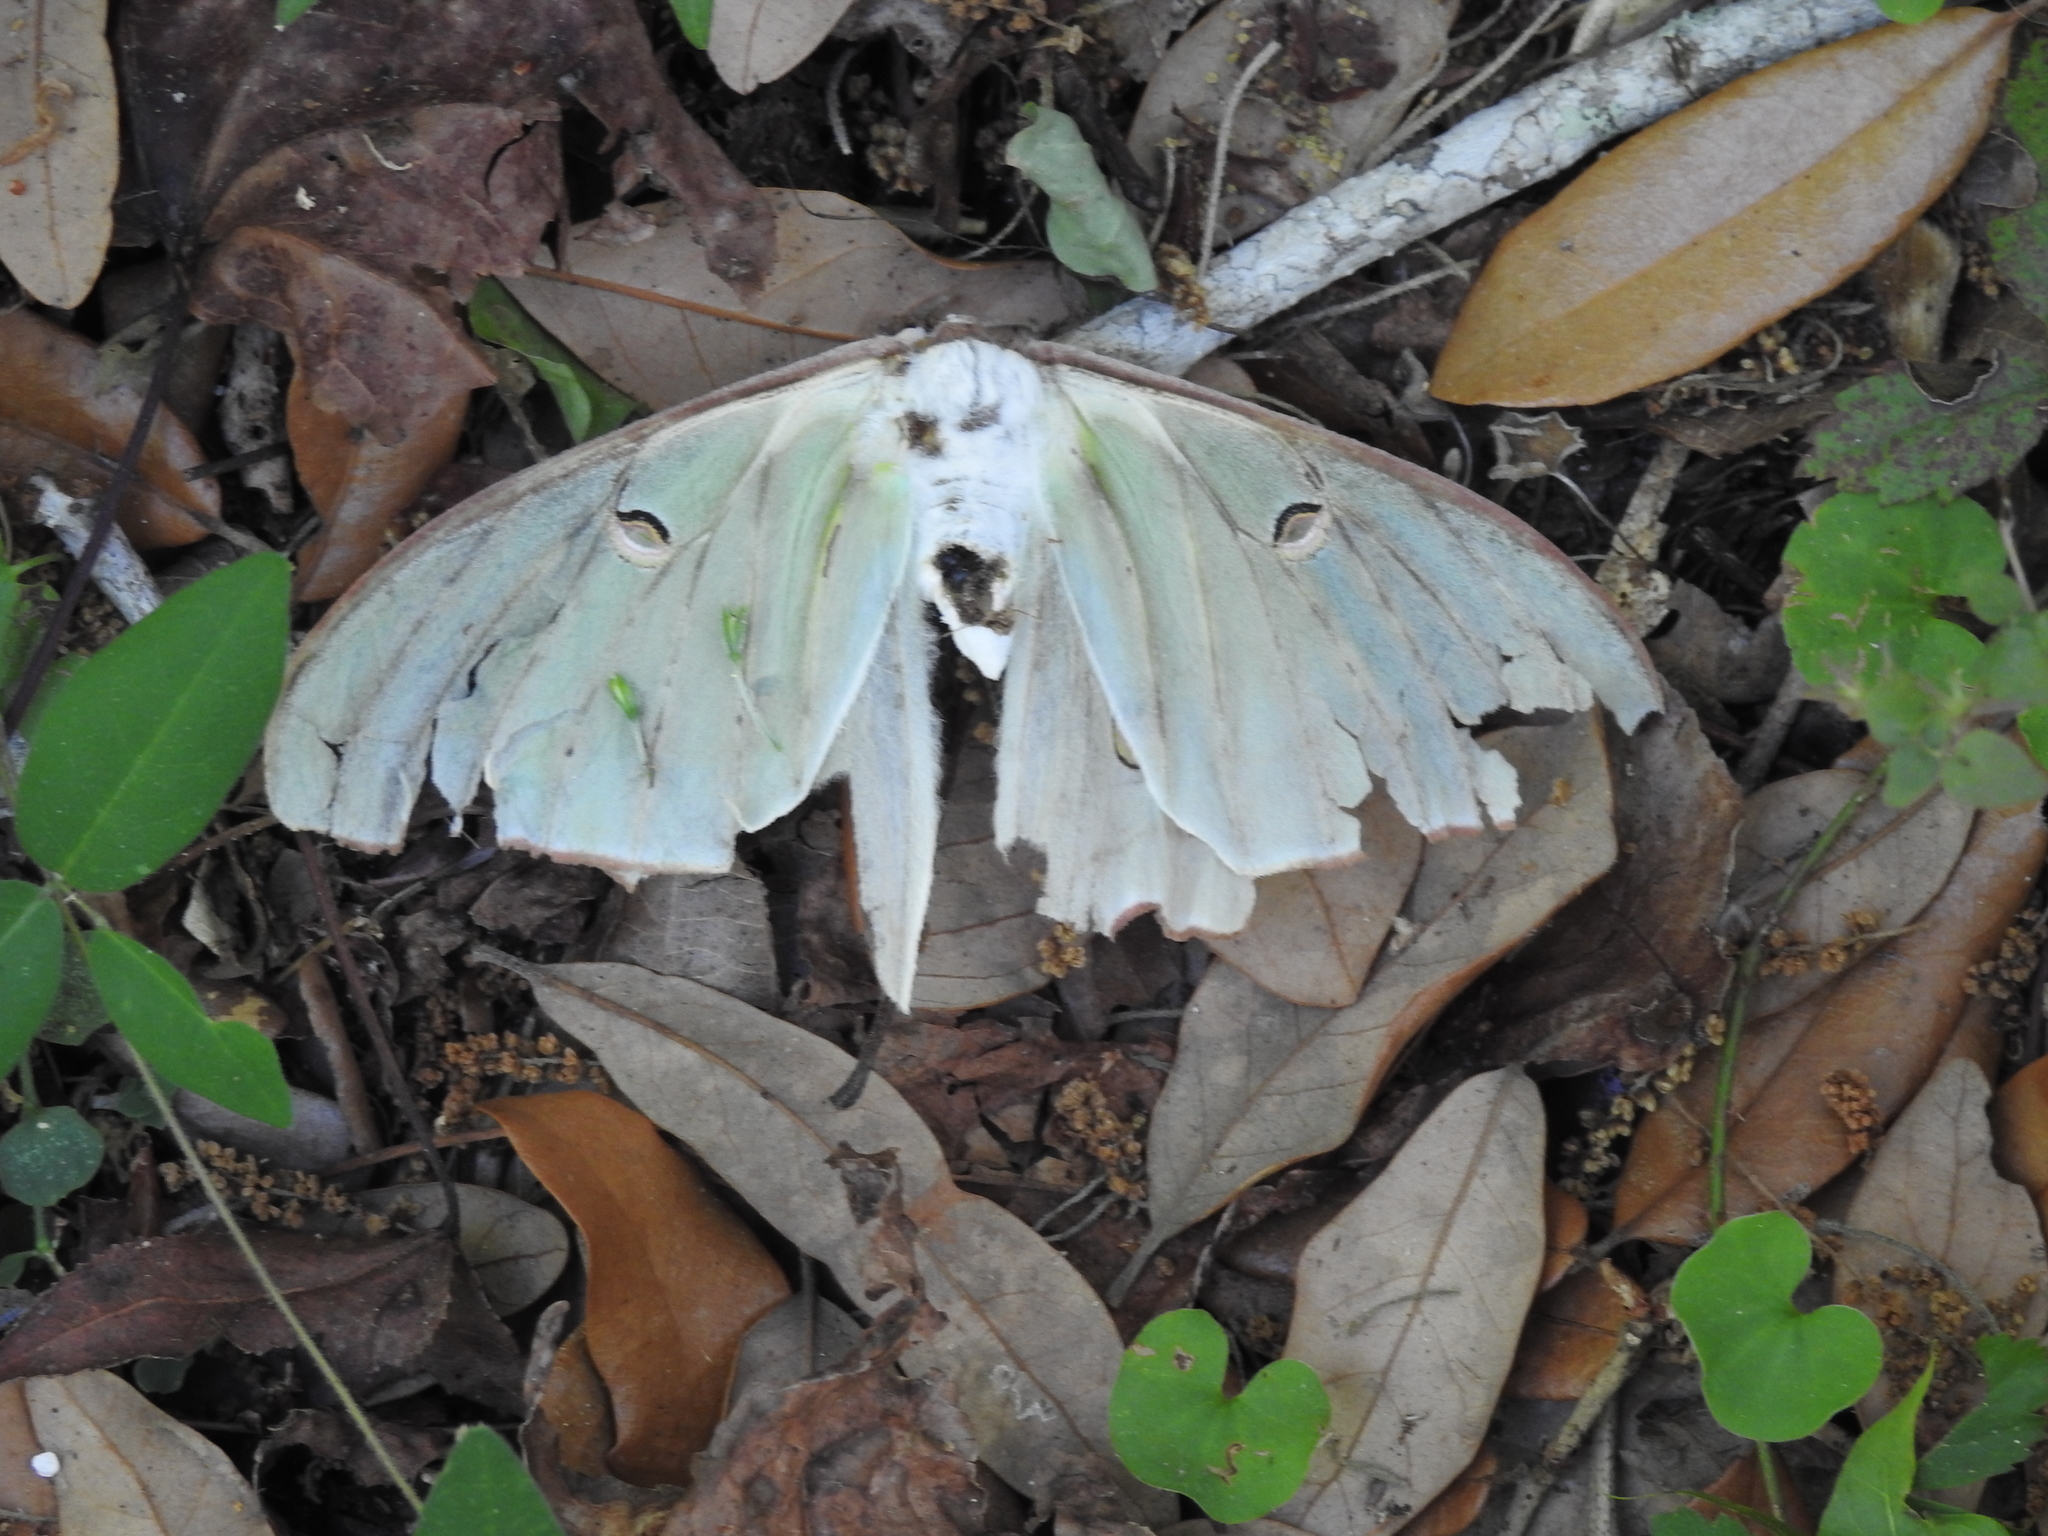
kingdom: Animalia
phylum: Arthropoda
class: Insecta
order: Lepidoptera
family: Saturniidae
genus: Actias
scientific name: Actias luna
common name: Luna moth
